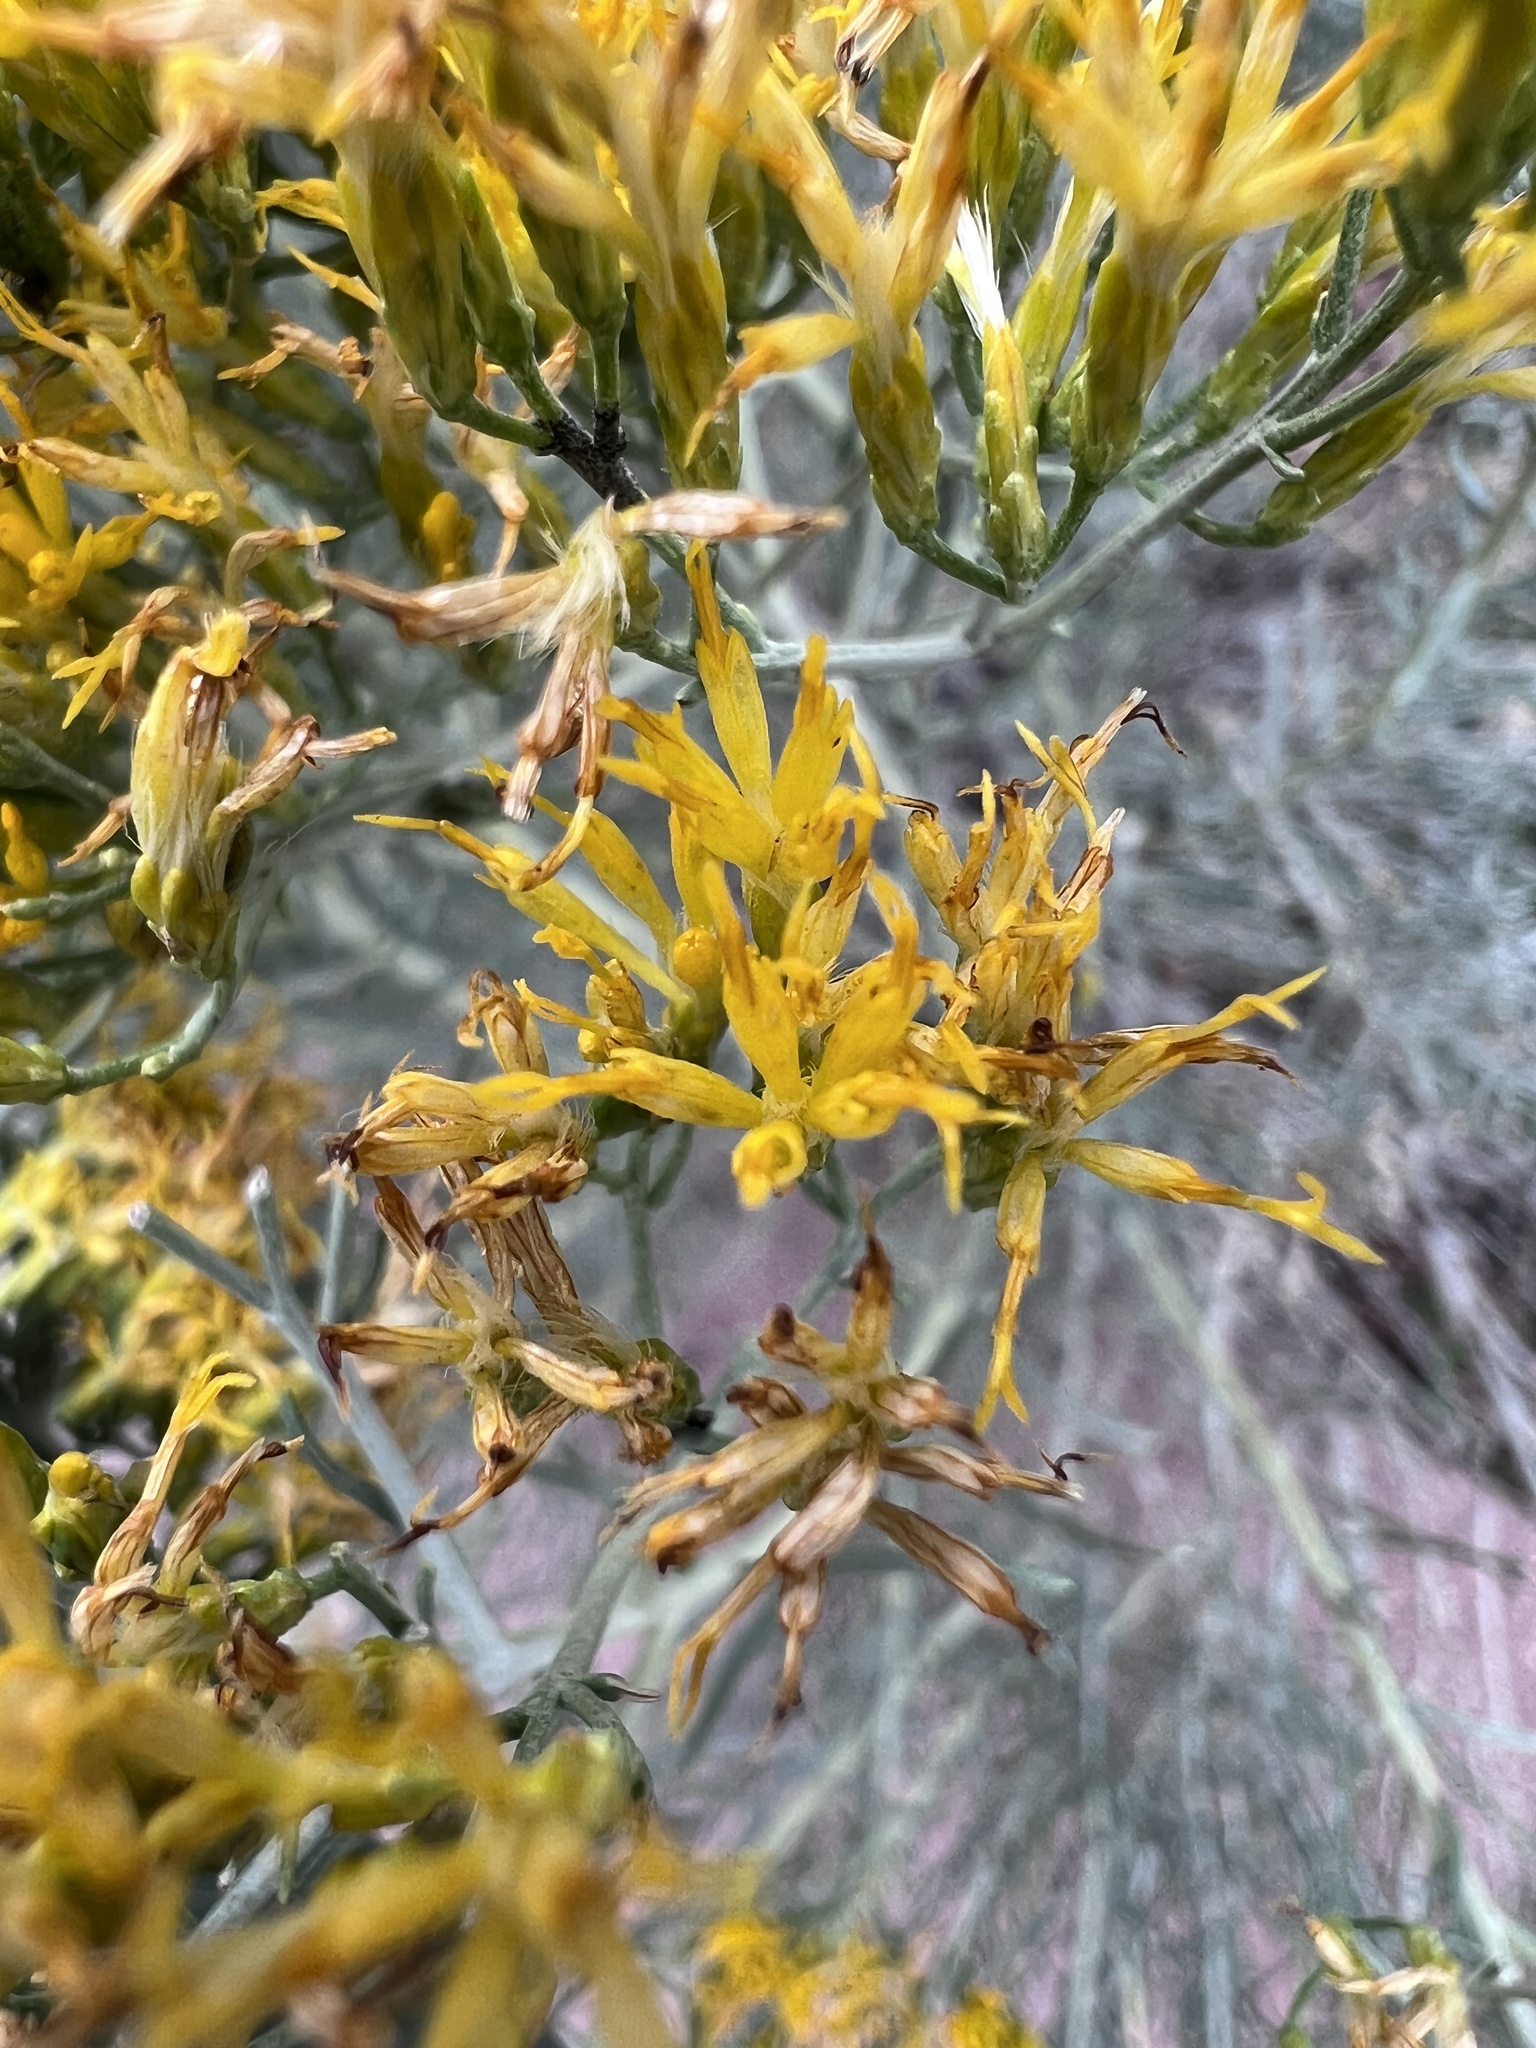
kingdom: Plantae
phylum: Tracheophyta
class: Magnoliopsida
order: Asterales
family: Asteraceae
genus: Ericameria
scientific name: Ericameria nauseosa
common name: Rubber rabbitbrush
